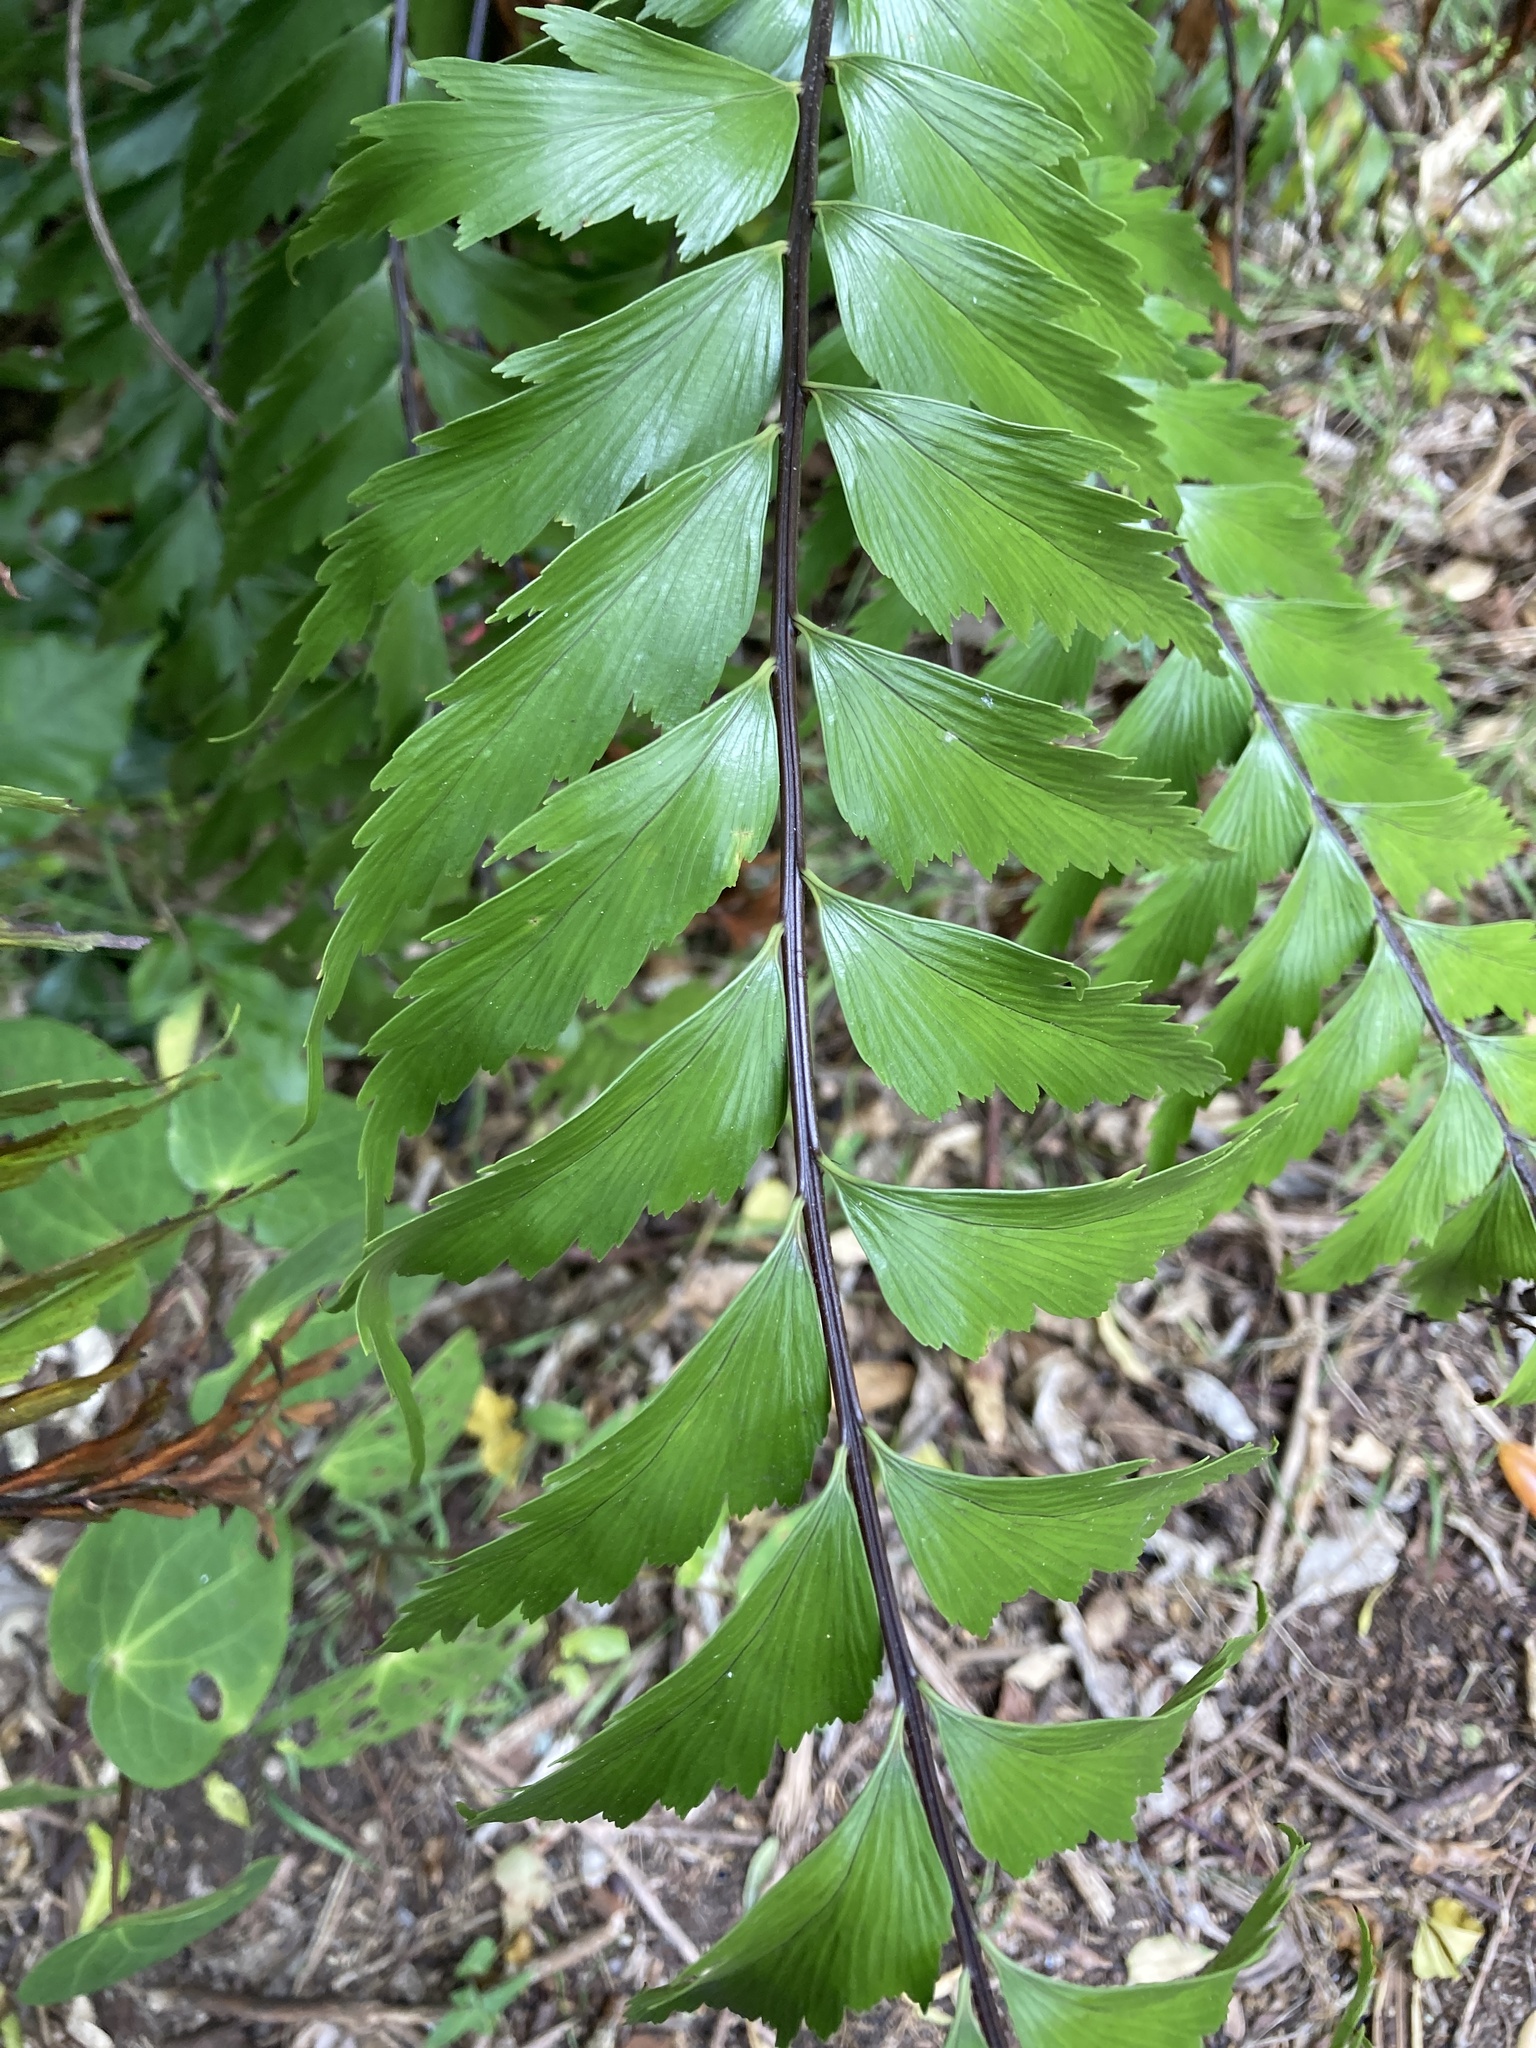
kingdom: Plantae
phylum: Tracheophyta
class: Polypodiopsida
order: Polypodiales
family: Aspleniaceae
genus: Asplenium
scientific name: Asplenium polyodon
